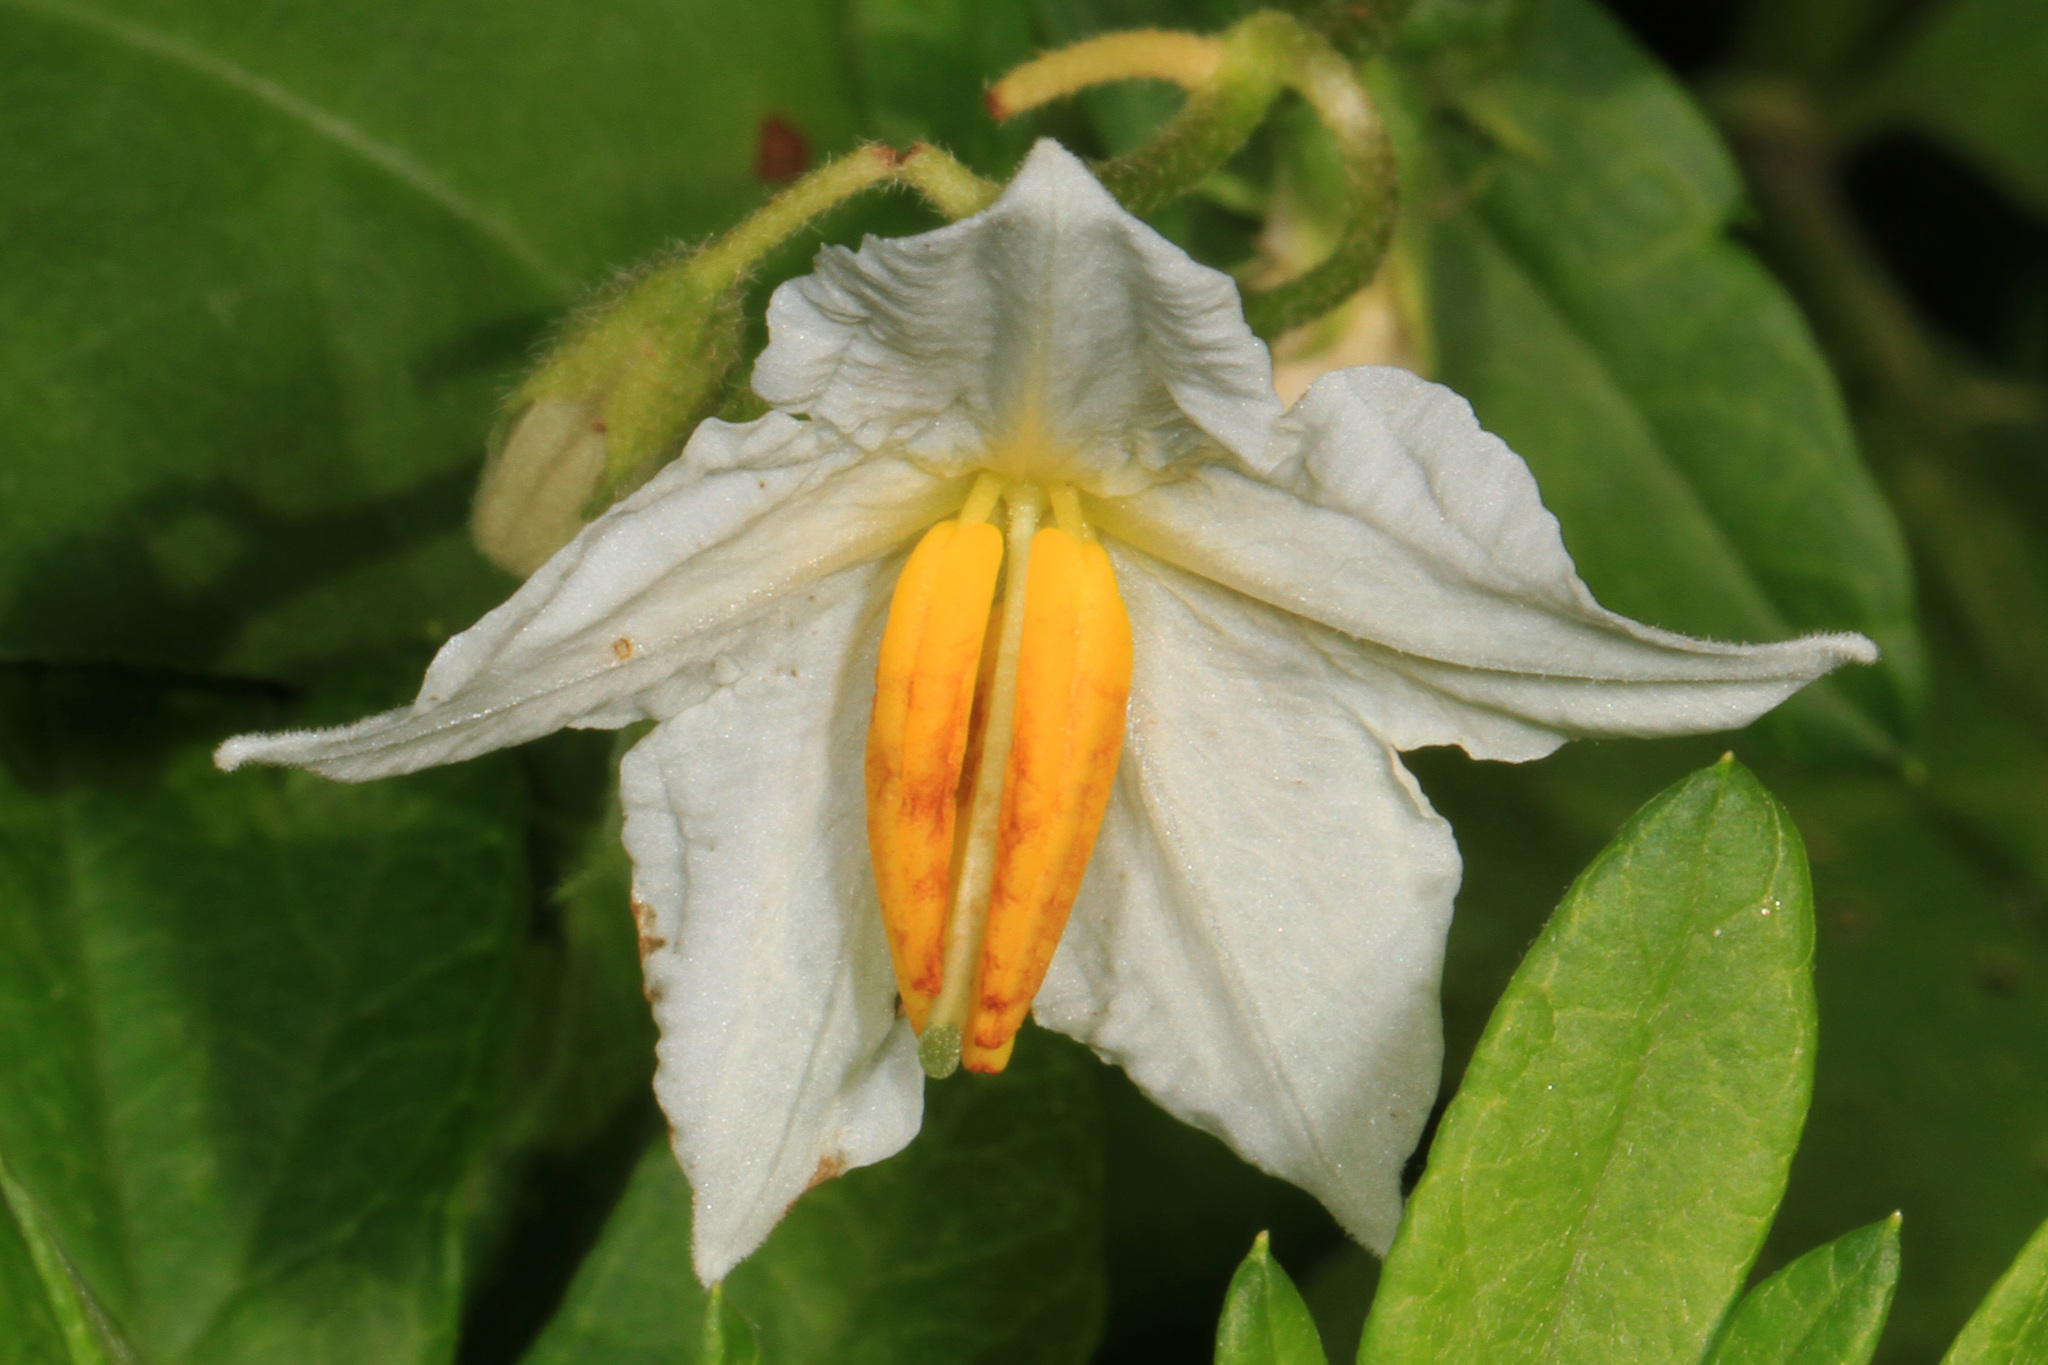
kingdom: Plantae
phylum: Tracheophyta
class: Magnoliopsida
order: Solanales
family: Solanaceae
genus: Solanum
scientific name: Solanum carolinense
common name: Horse-nettle
